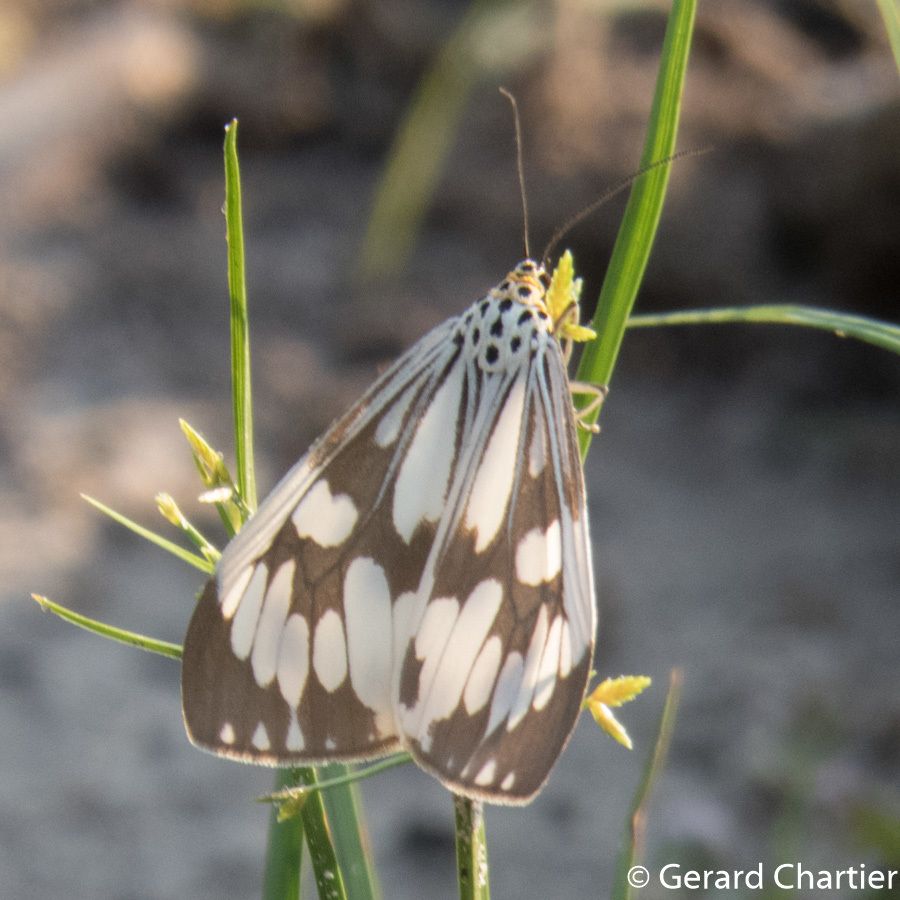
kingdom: Animalia
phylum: Arthropoda
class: Insecta
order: Lepidoptera
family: Erebidae
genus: Nyctemera
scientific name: Nyctemera adversata
